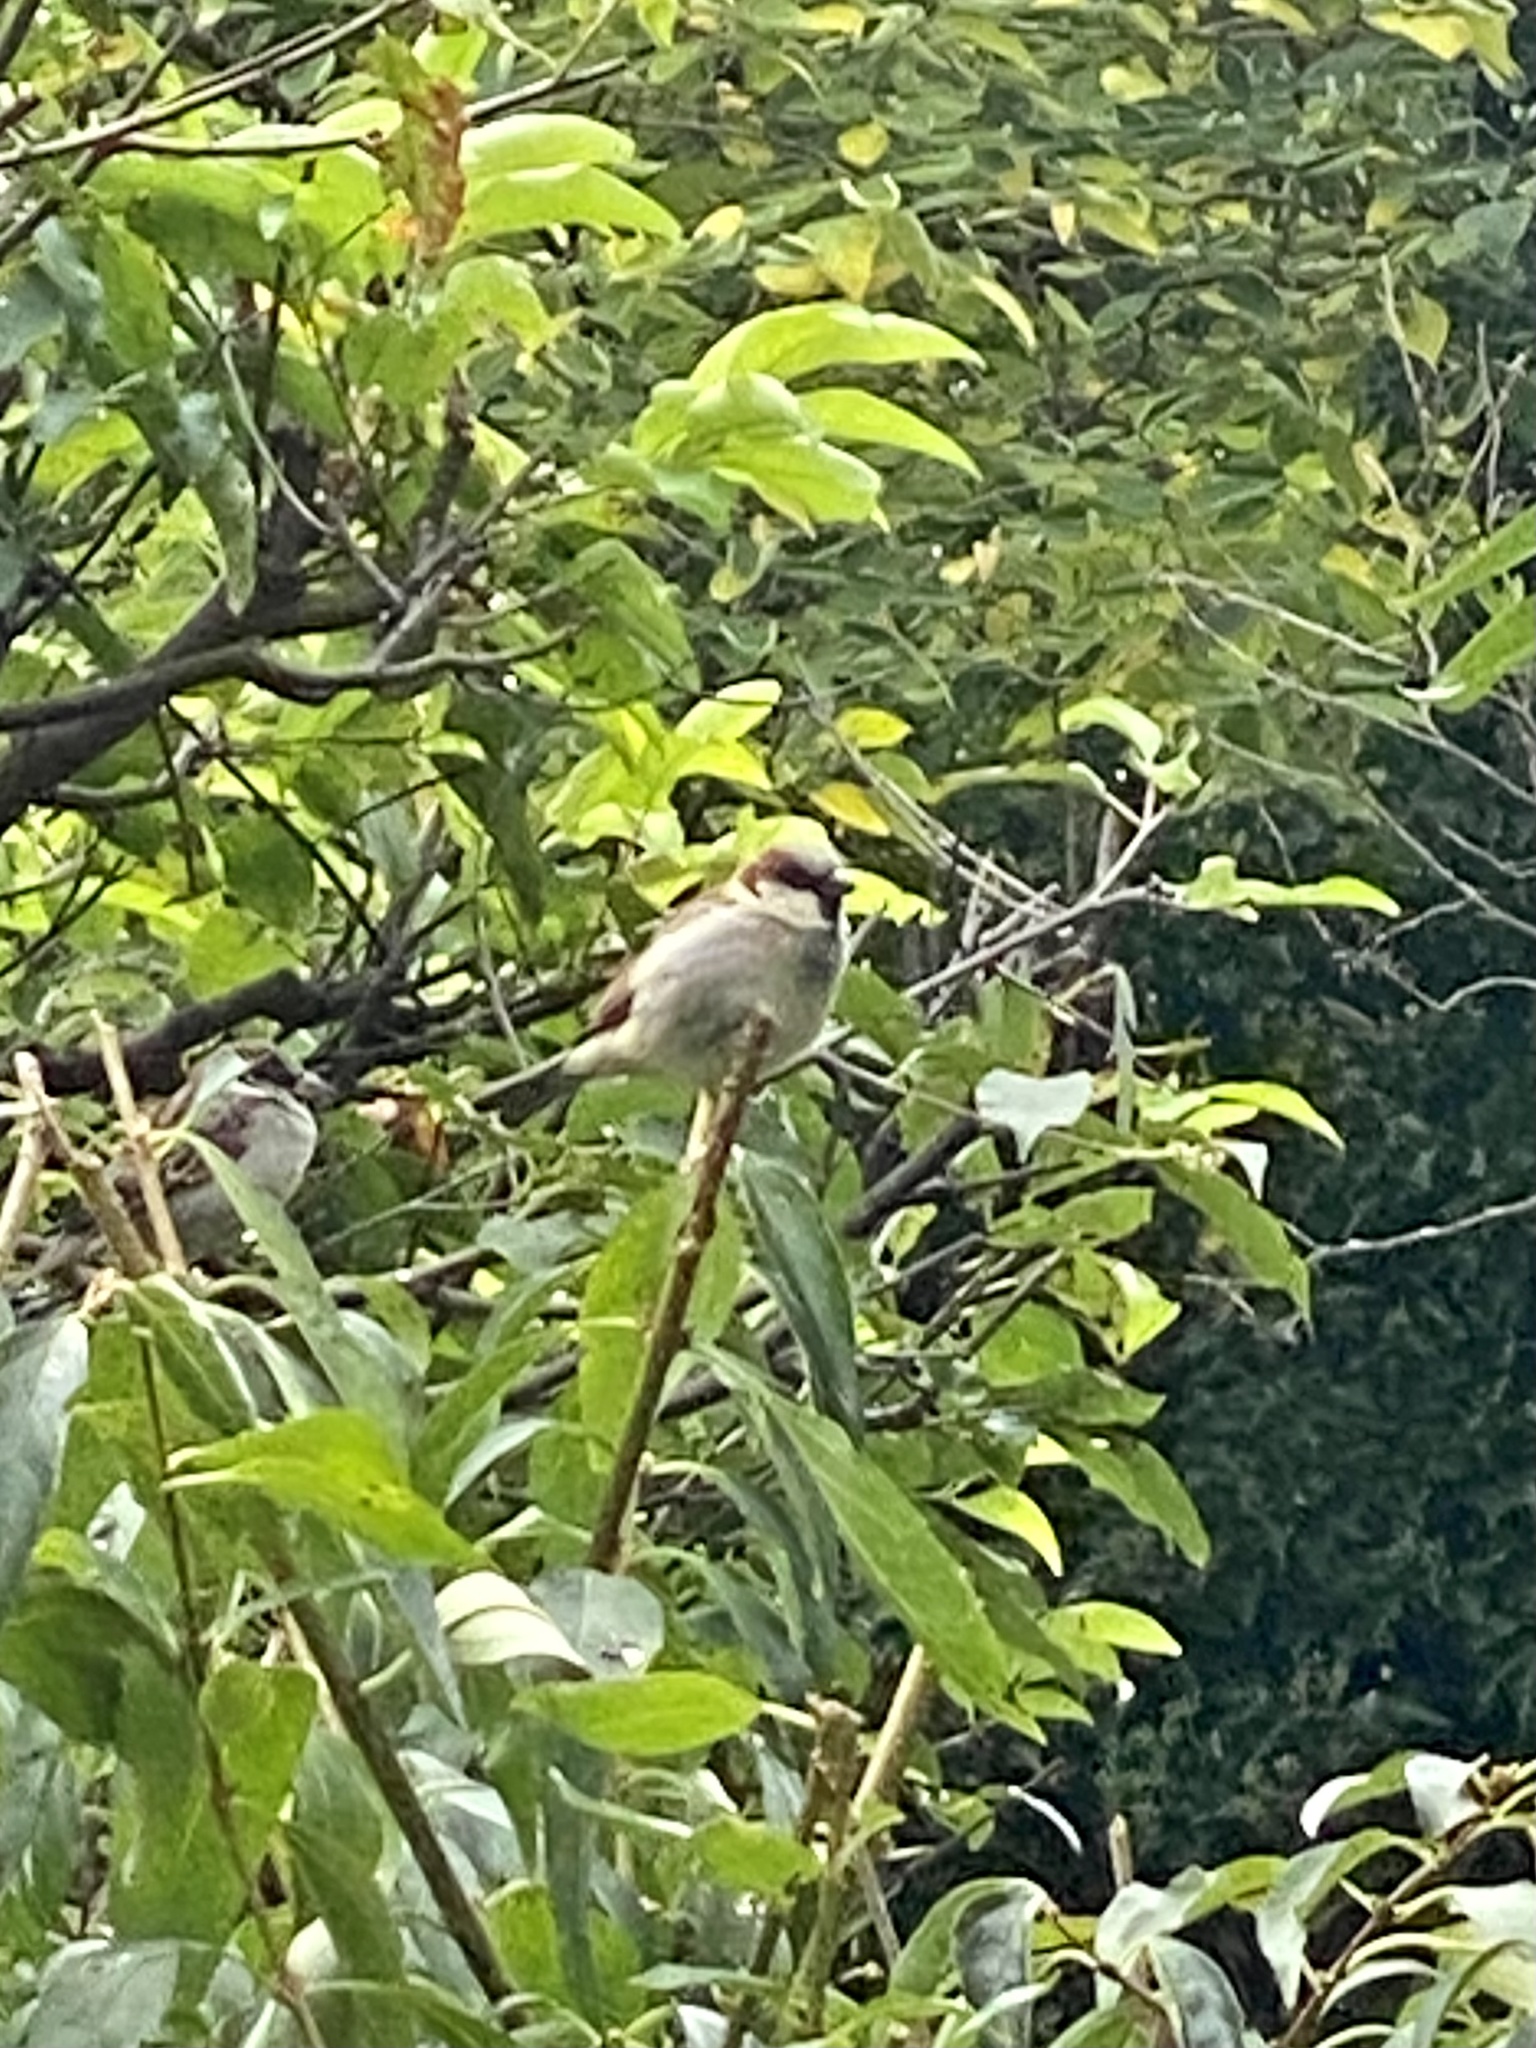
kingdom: Animalia
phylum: Chordata
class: Aves
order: Passeriformes
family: Passeridae
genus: Passer
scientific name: Passer domesticus
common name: House sparrow
